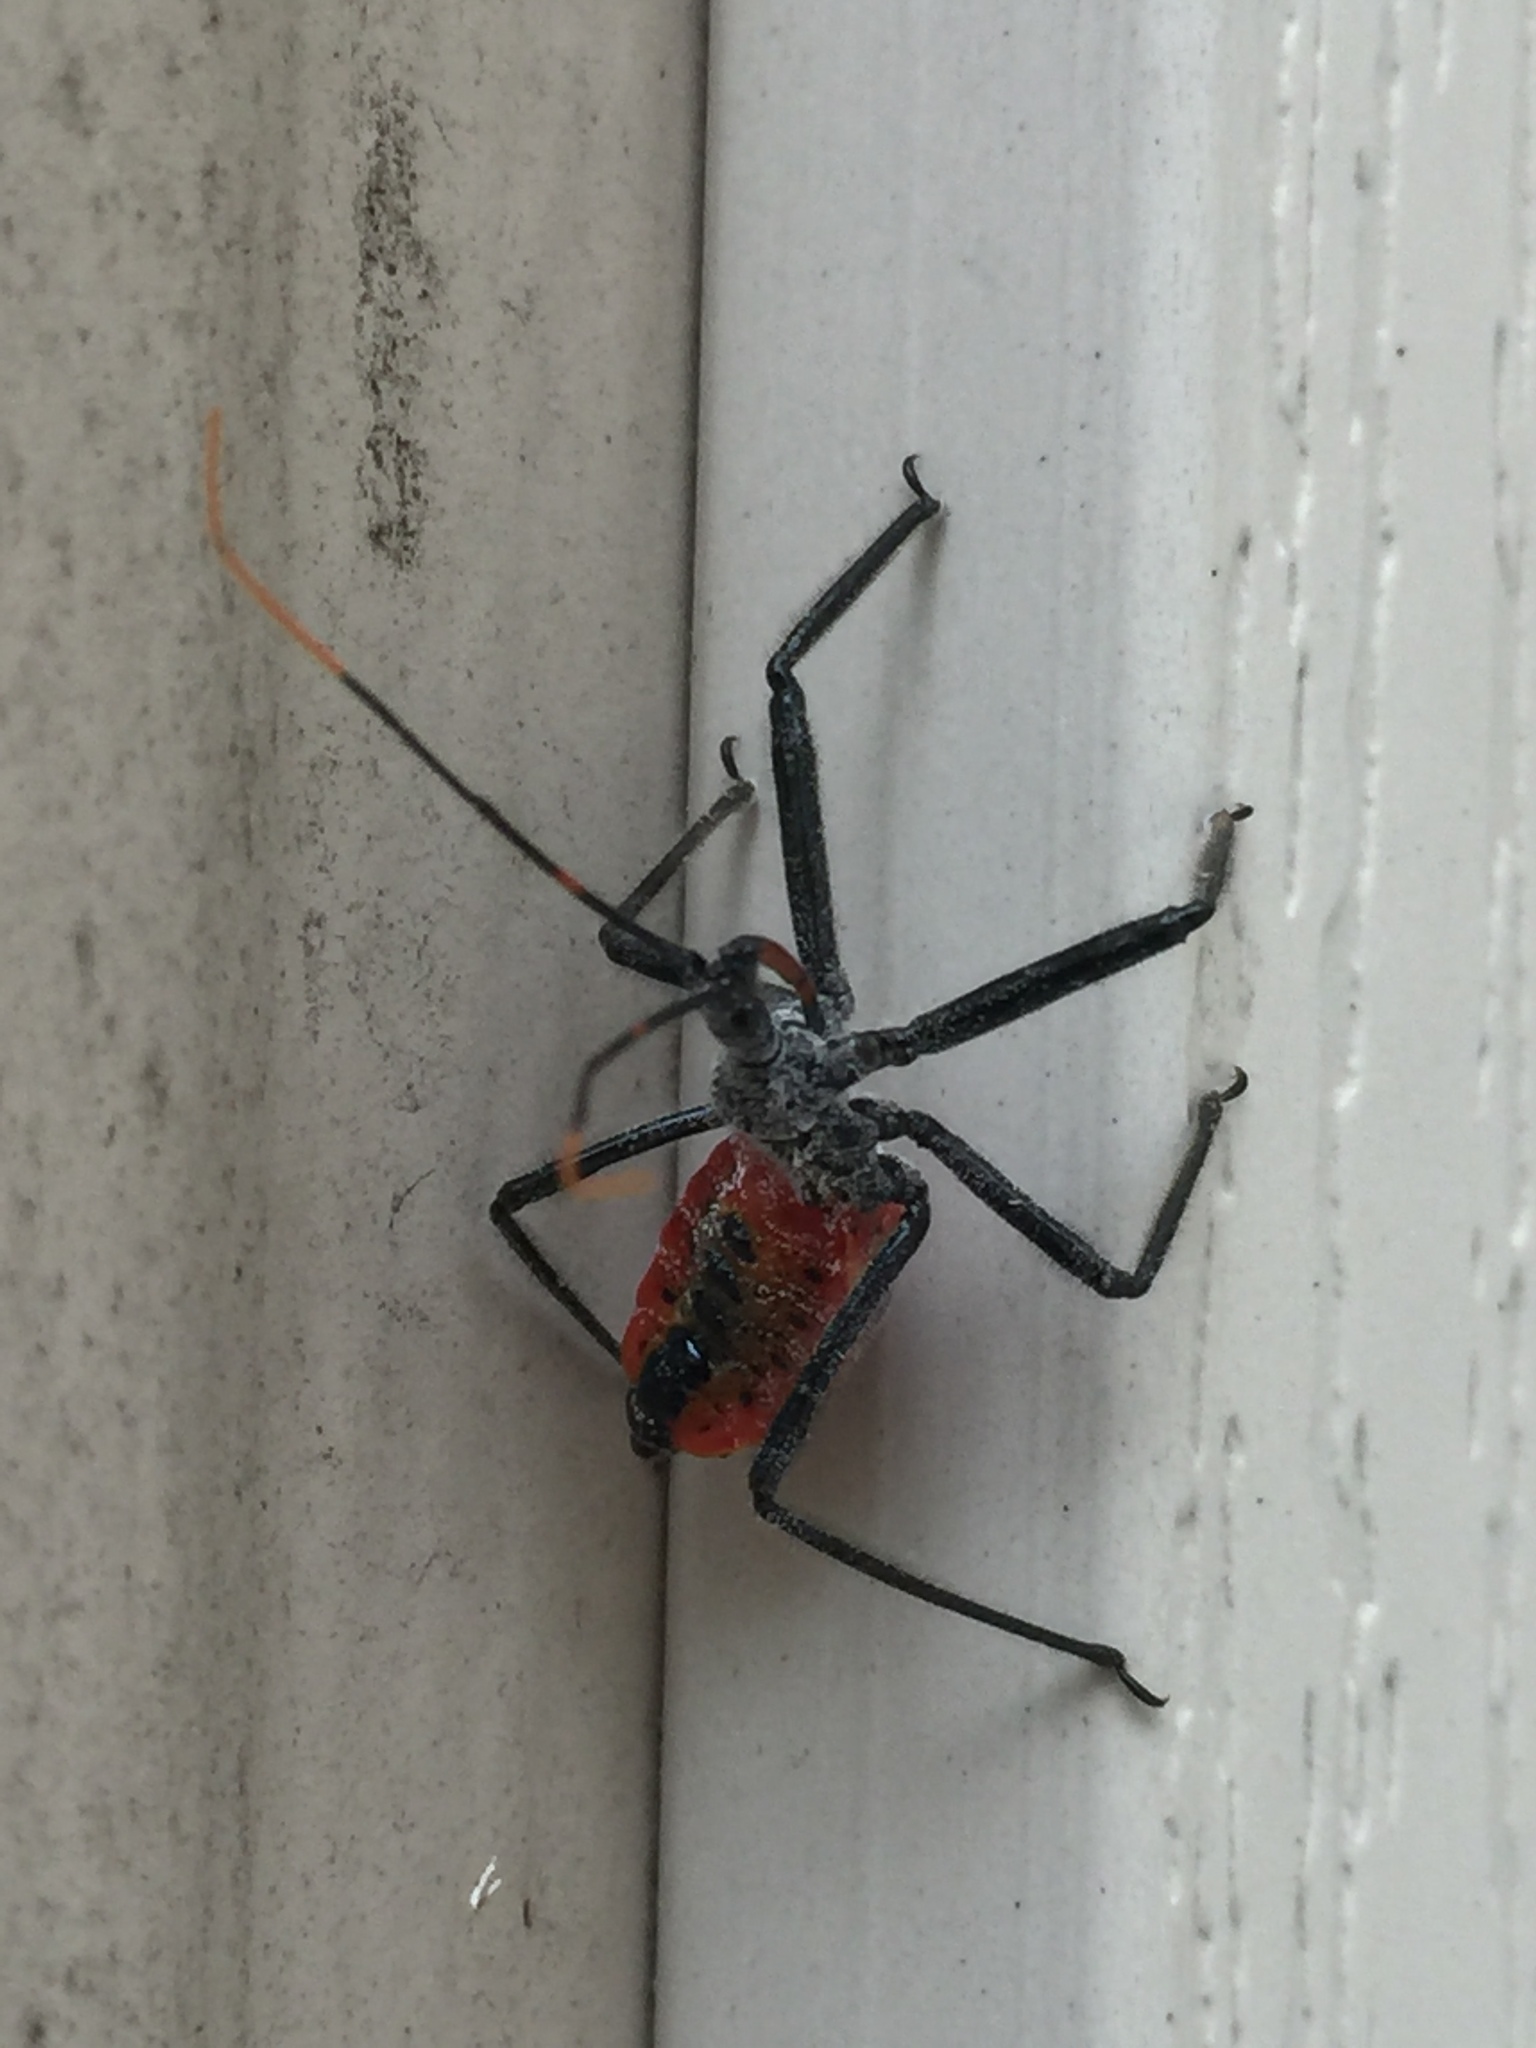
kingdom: Animalia
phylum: Arthropoda
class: Insecta
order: Hemiptera
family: Reduviidae
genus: Arilus
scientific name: Arilus cristatus
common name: North american wheel bug
